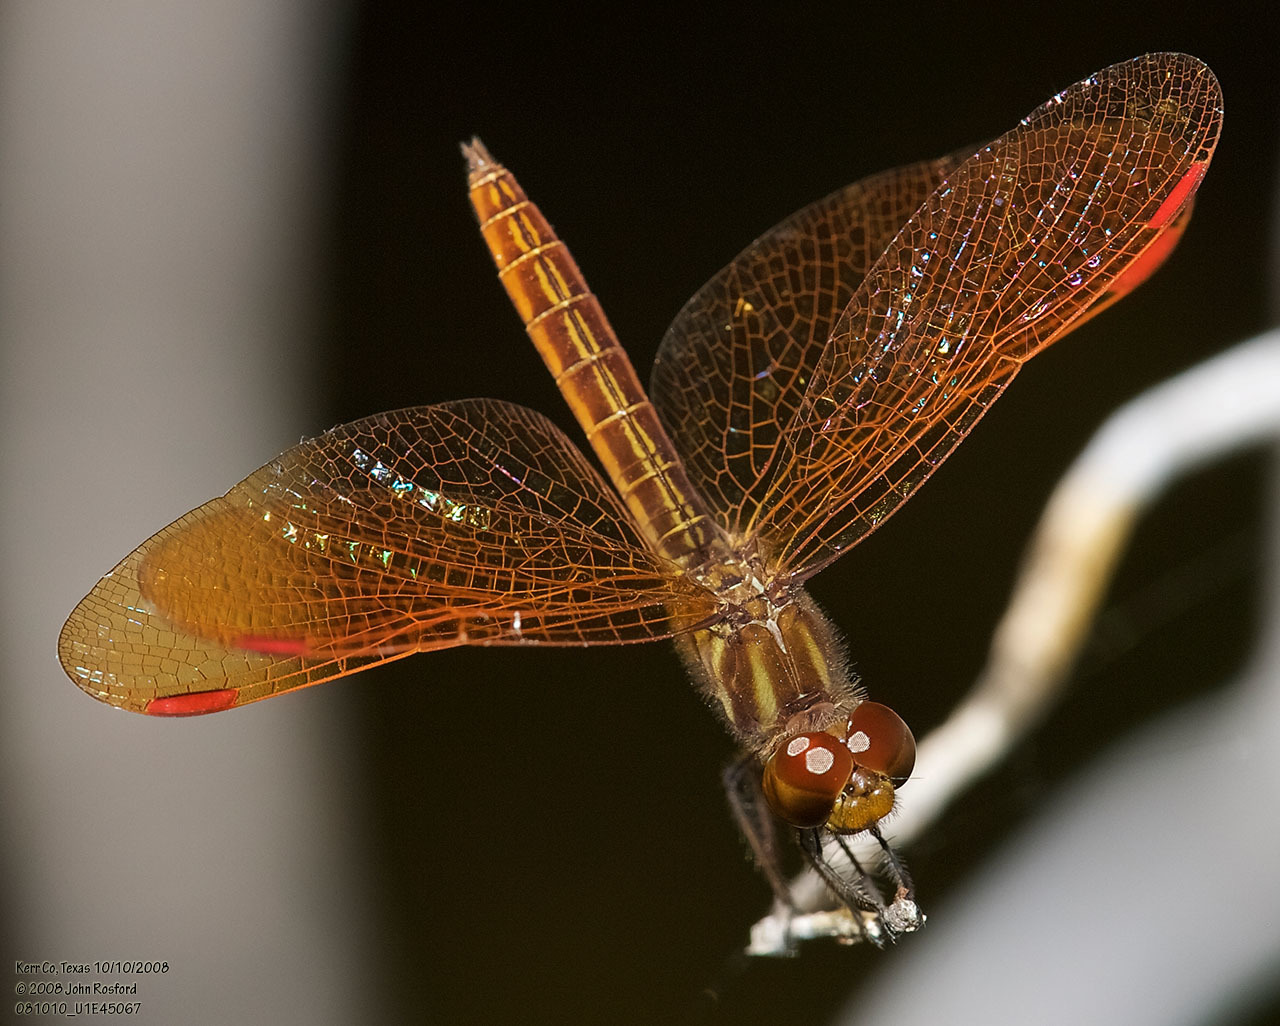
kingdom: Animalia
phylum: Arthropoda
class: Insecta
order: Odonata
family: Libellulidae
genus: Perithemis
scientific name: Perithemis domitia
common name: Slough amberwing
